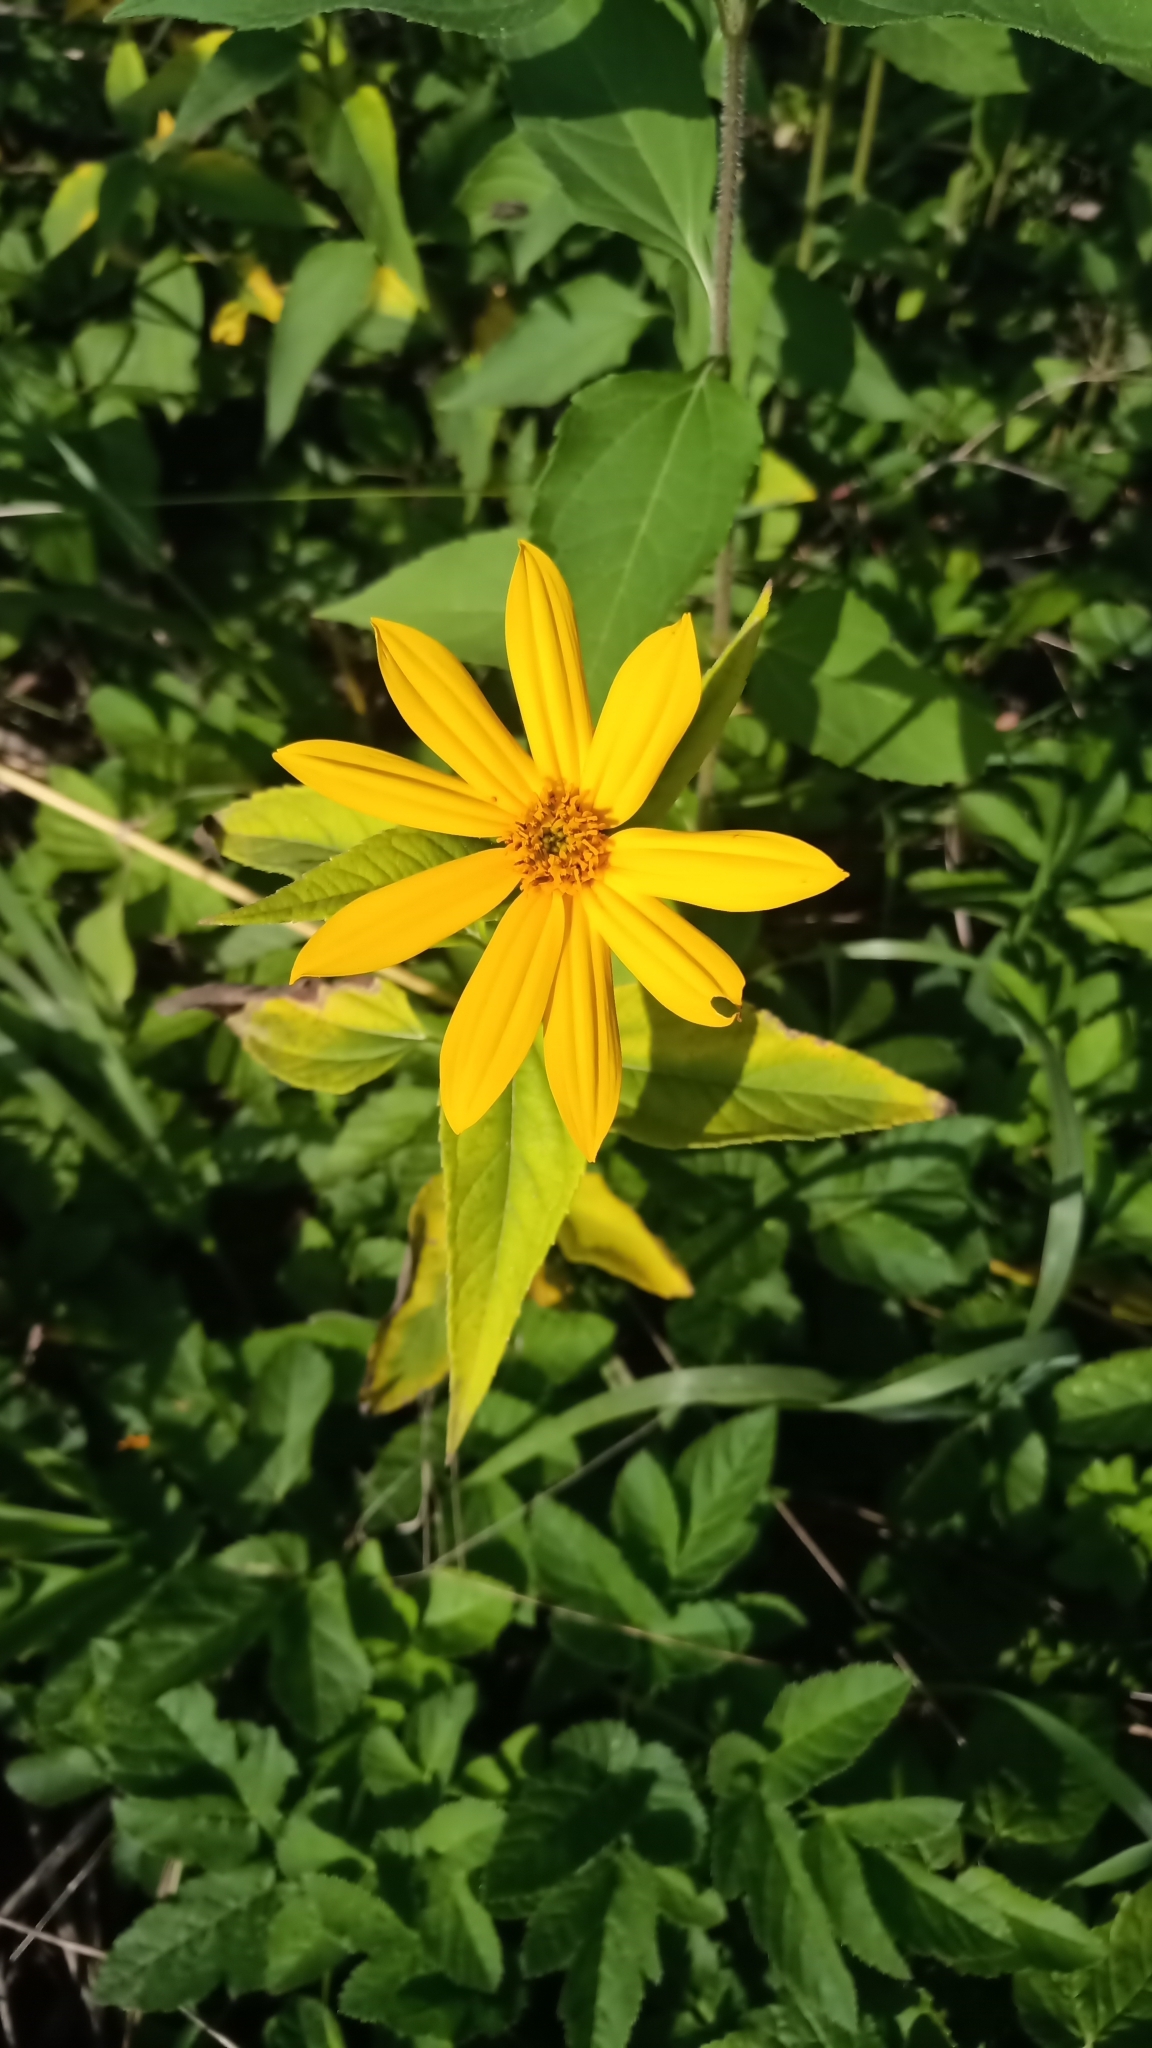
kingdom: Plantae
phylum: Tracheophyta
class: Magnoliopsida
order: Asterales
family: Asteraceae
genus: Helianthus
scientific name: Helianthus tuberosus
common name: Jerusalem artichoke
